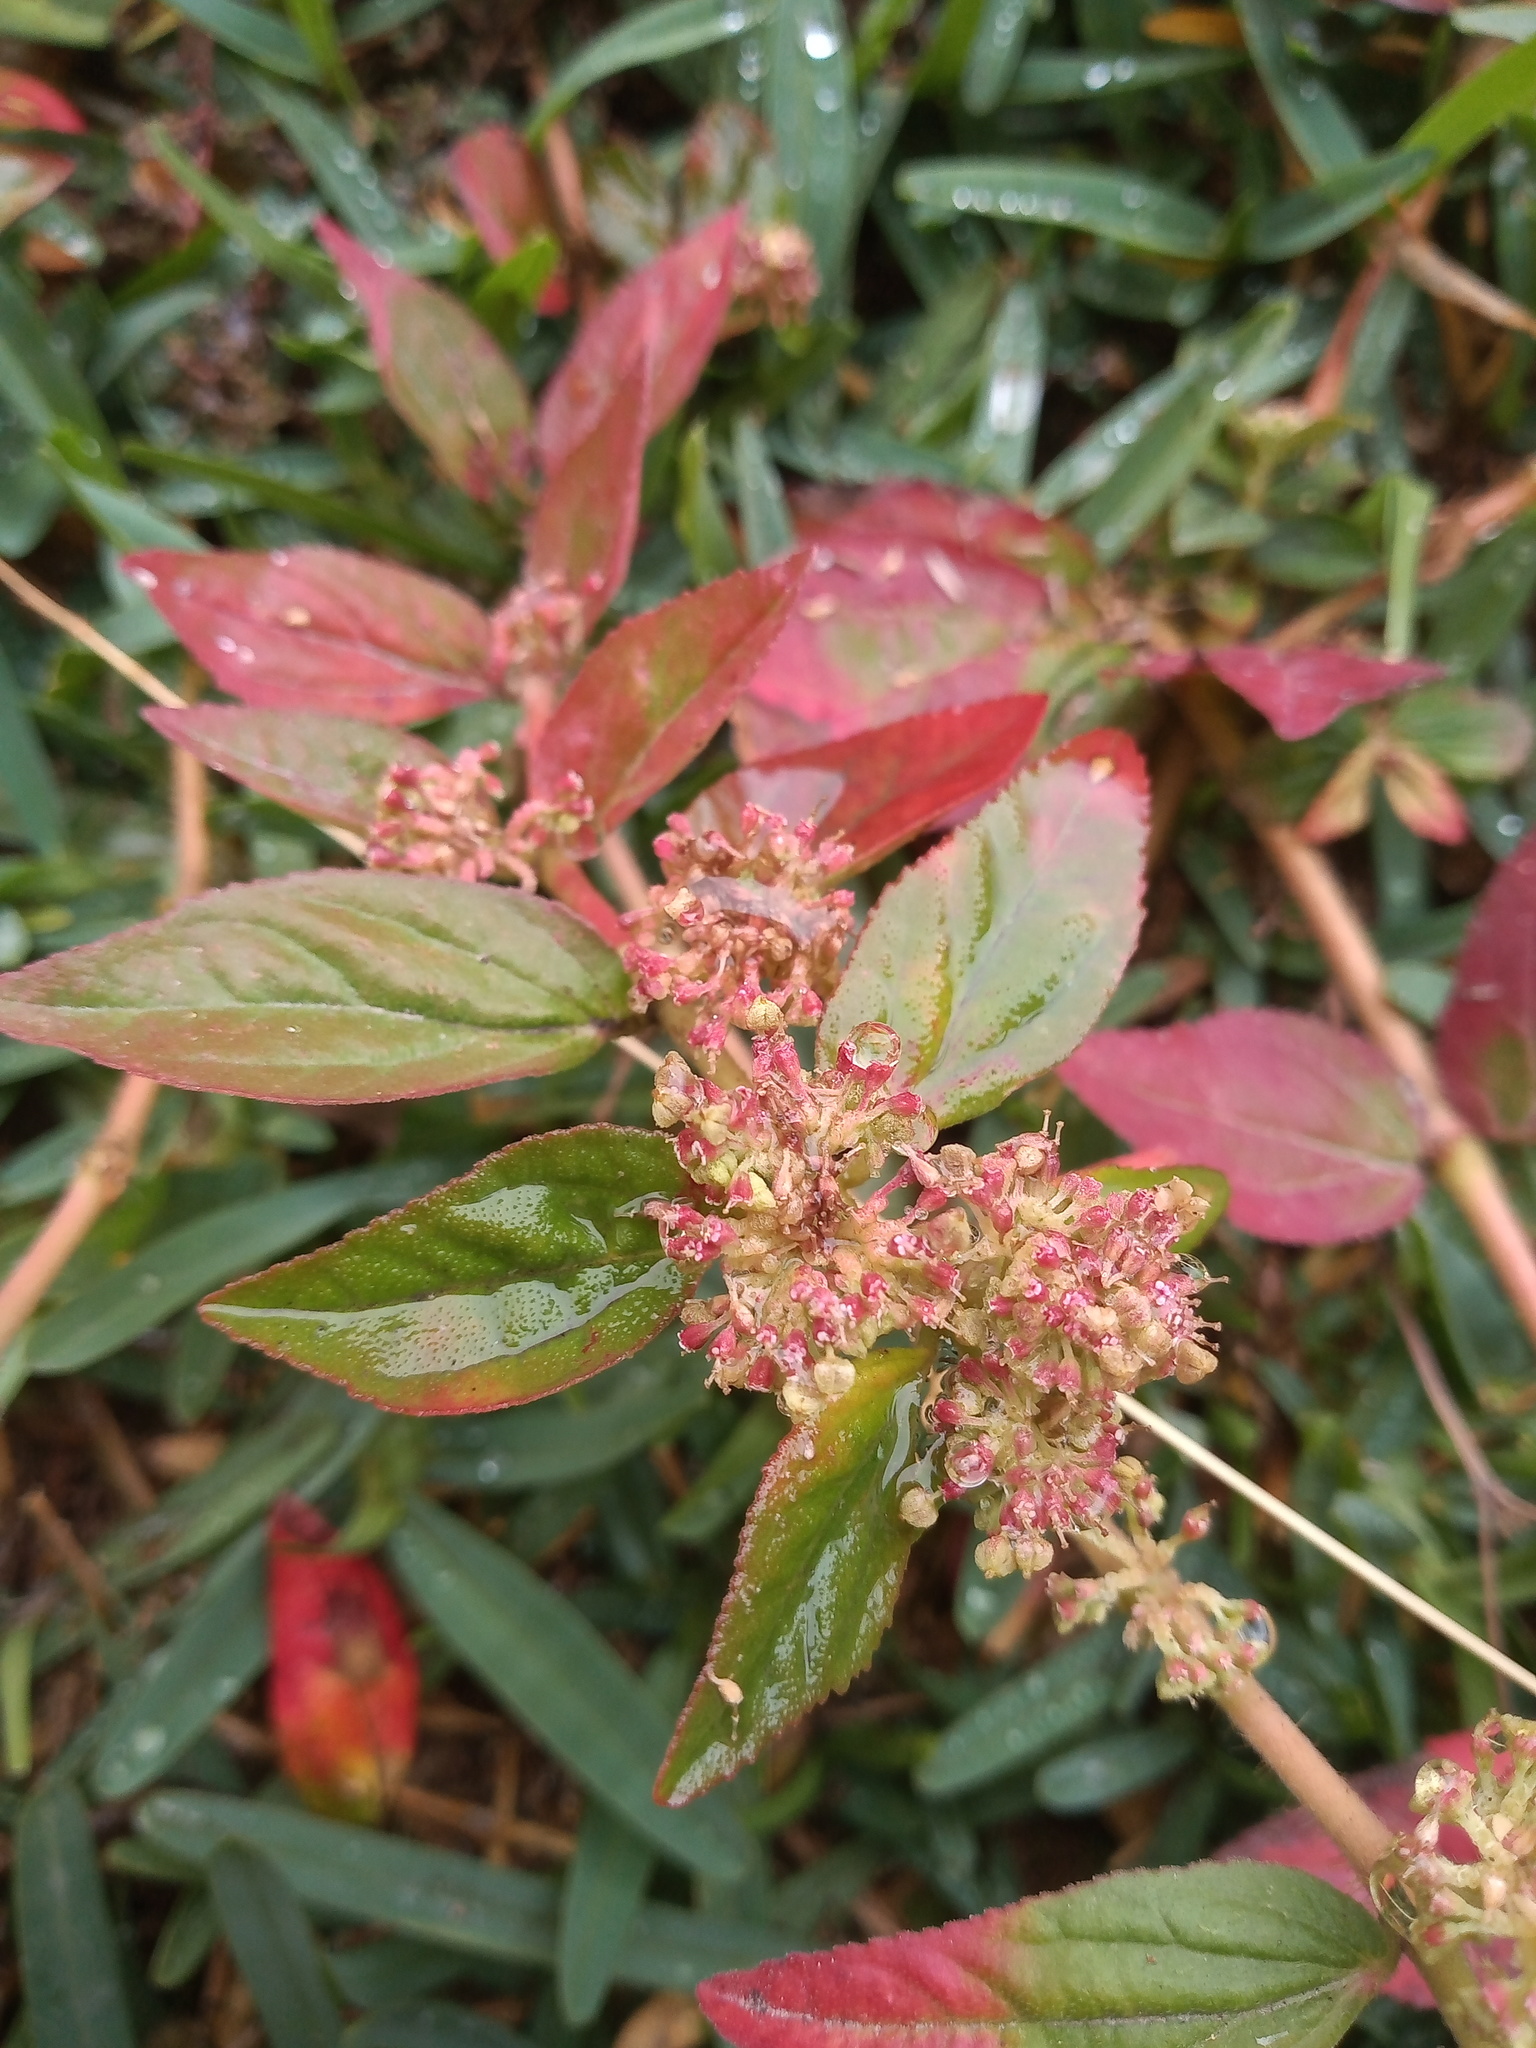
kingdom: Plantae
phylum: Tracheophyta
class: Magnoliopsida
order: Malpighiales
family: Euphorbiaceae
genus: Euphorbia
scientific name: Euphorbia hirta
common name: Pillpod sandmat
